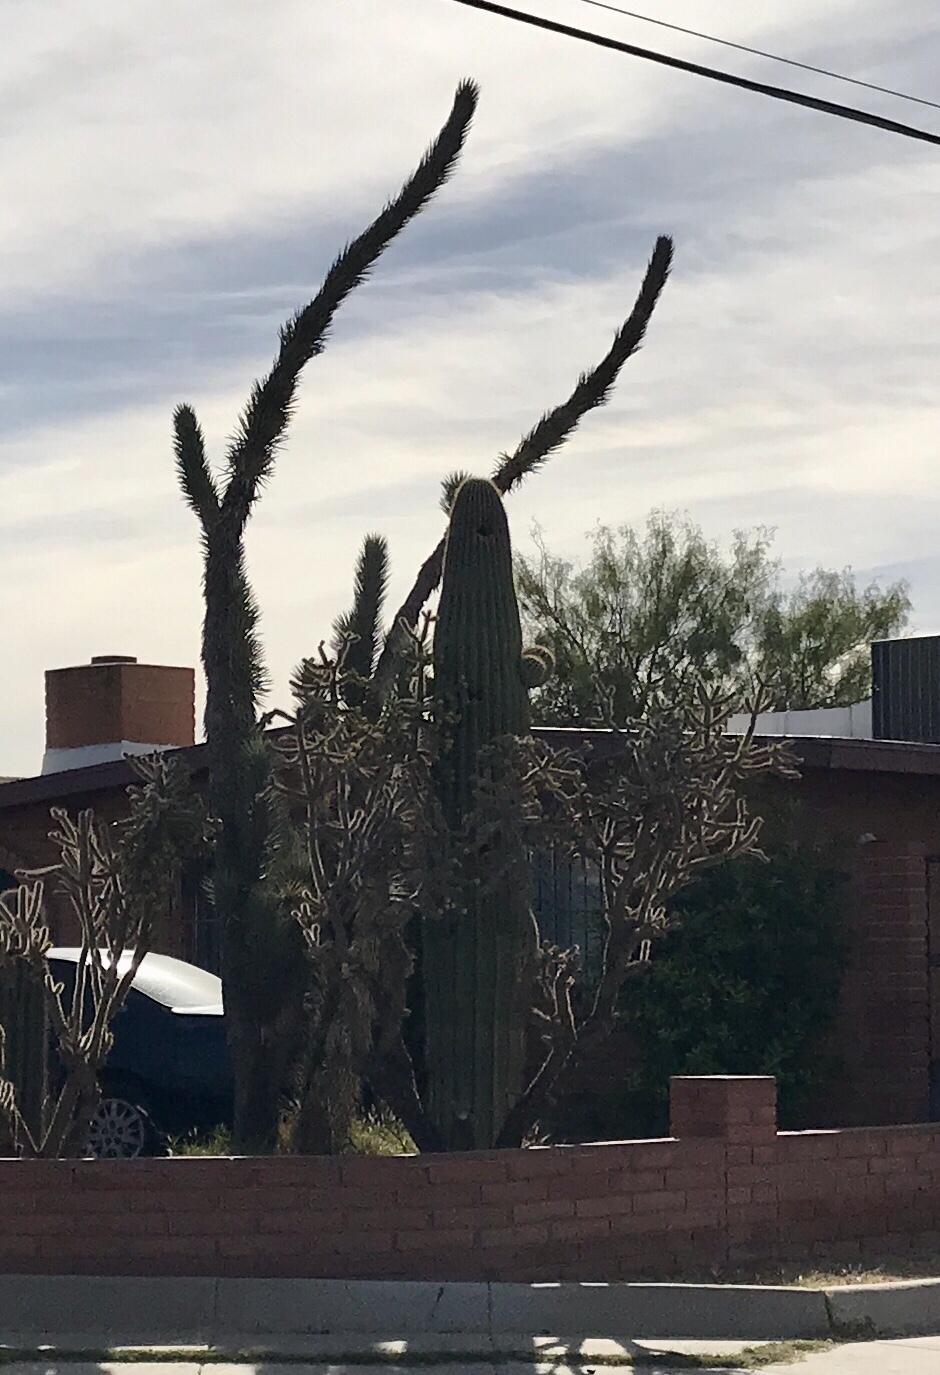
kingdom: Plantae
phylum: Tracheophyta
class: Magnoliopsida
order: Caryophyllales
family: Cactaceae
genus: Carnegiea
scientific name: Carnegiea gigantea
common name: Saguaro
